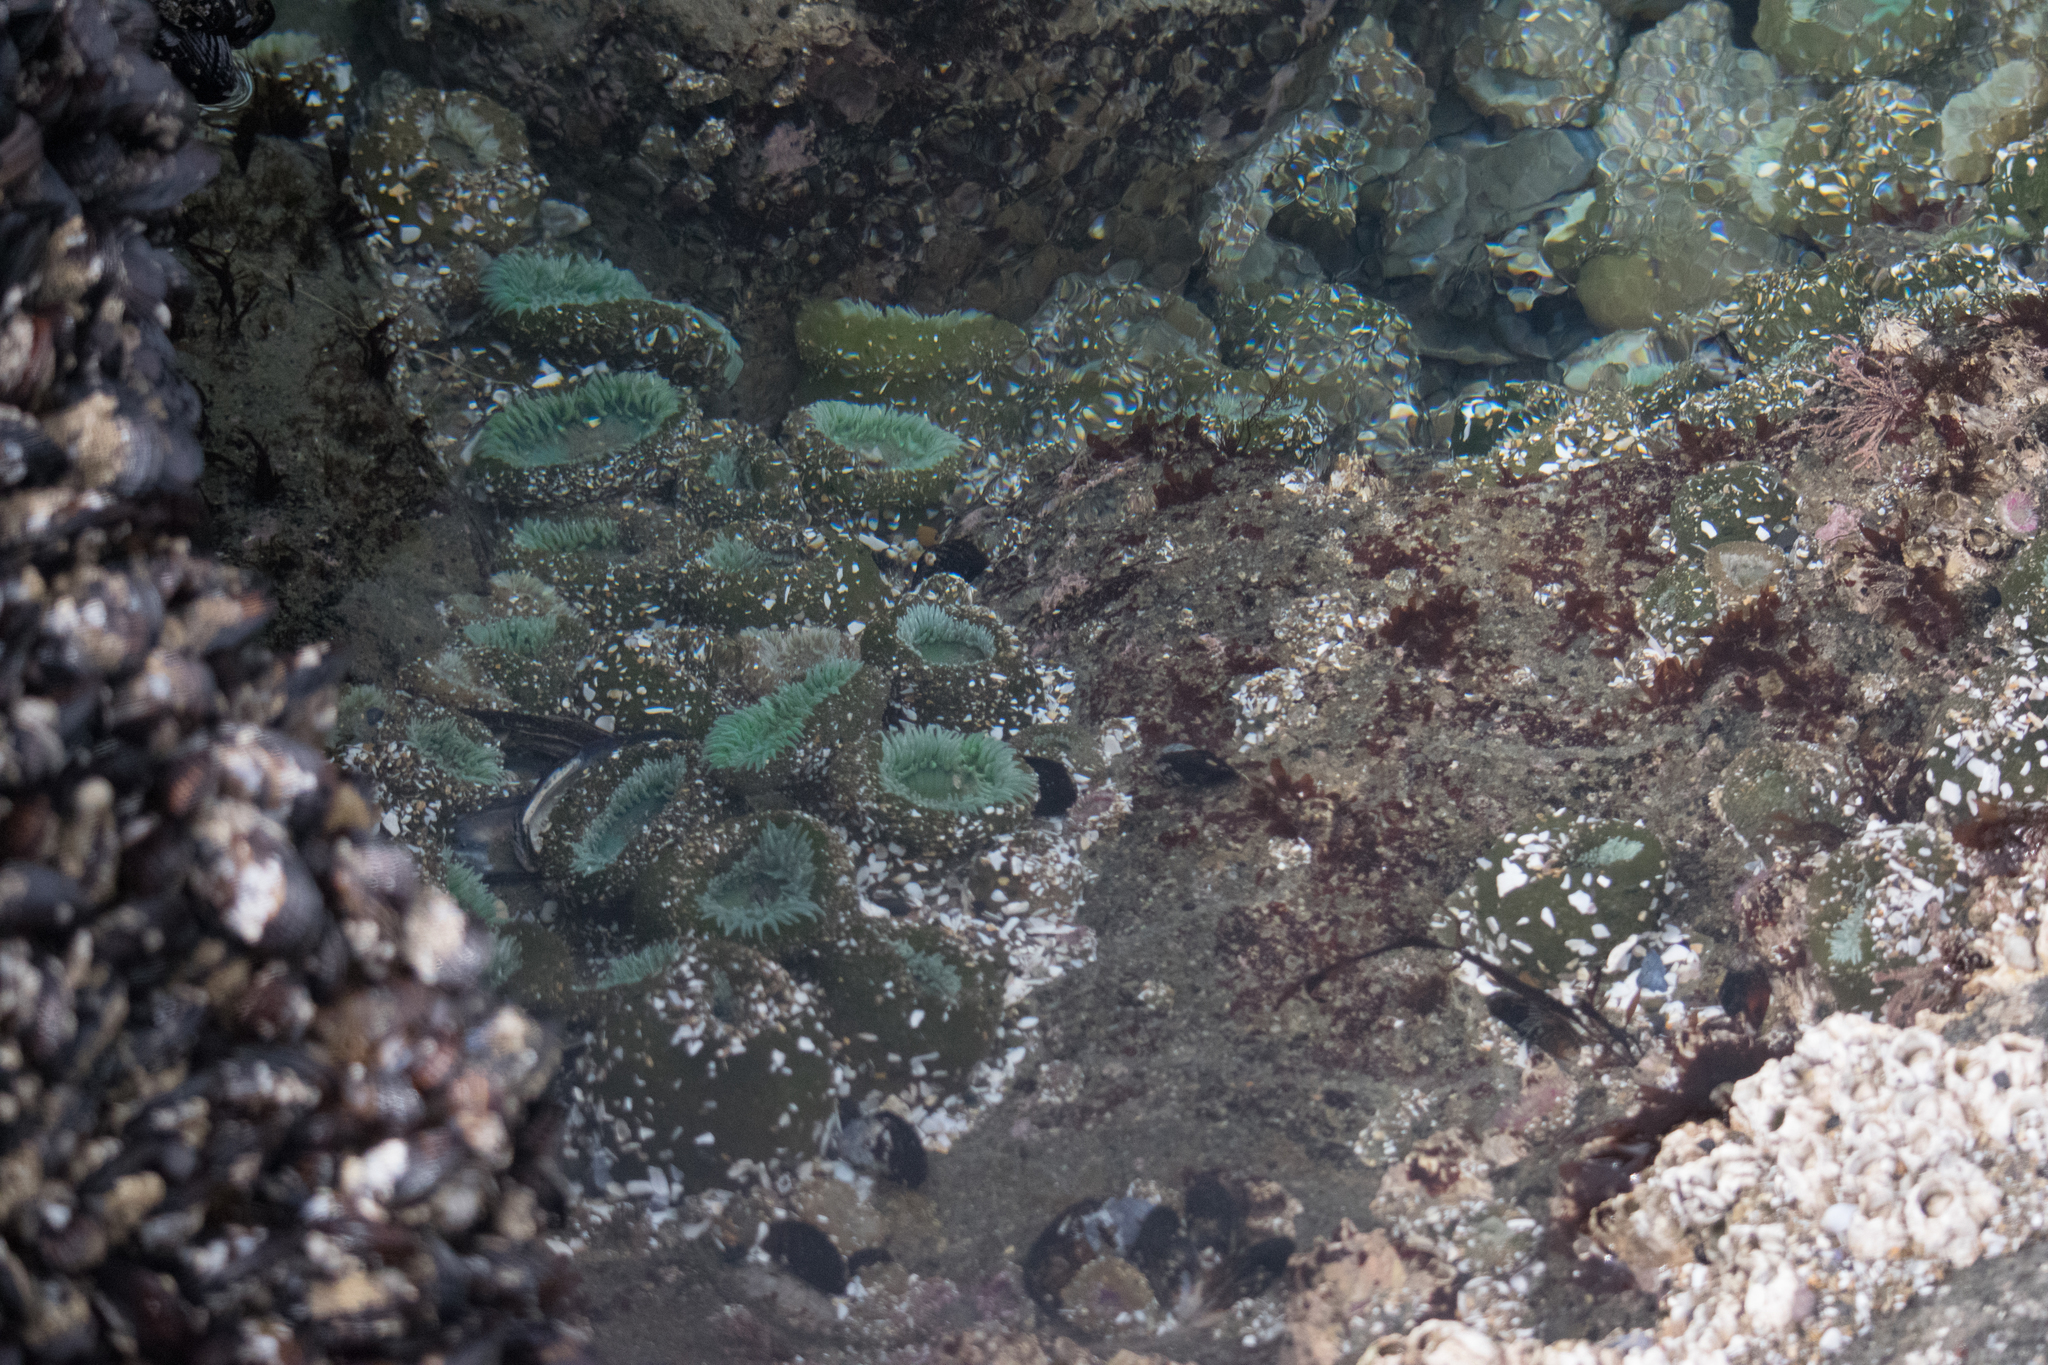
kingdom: Animalia
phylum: Cnidaria
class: Anthozoa
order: Actiniaria
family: Actiniidae
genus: Anthopleura
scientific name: Anthopleura xanthogrammica
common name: Giant green anemone
